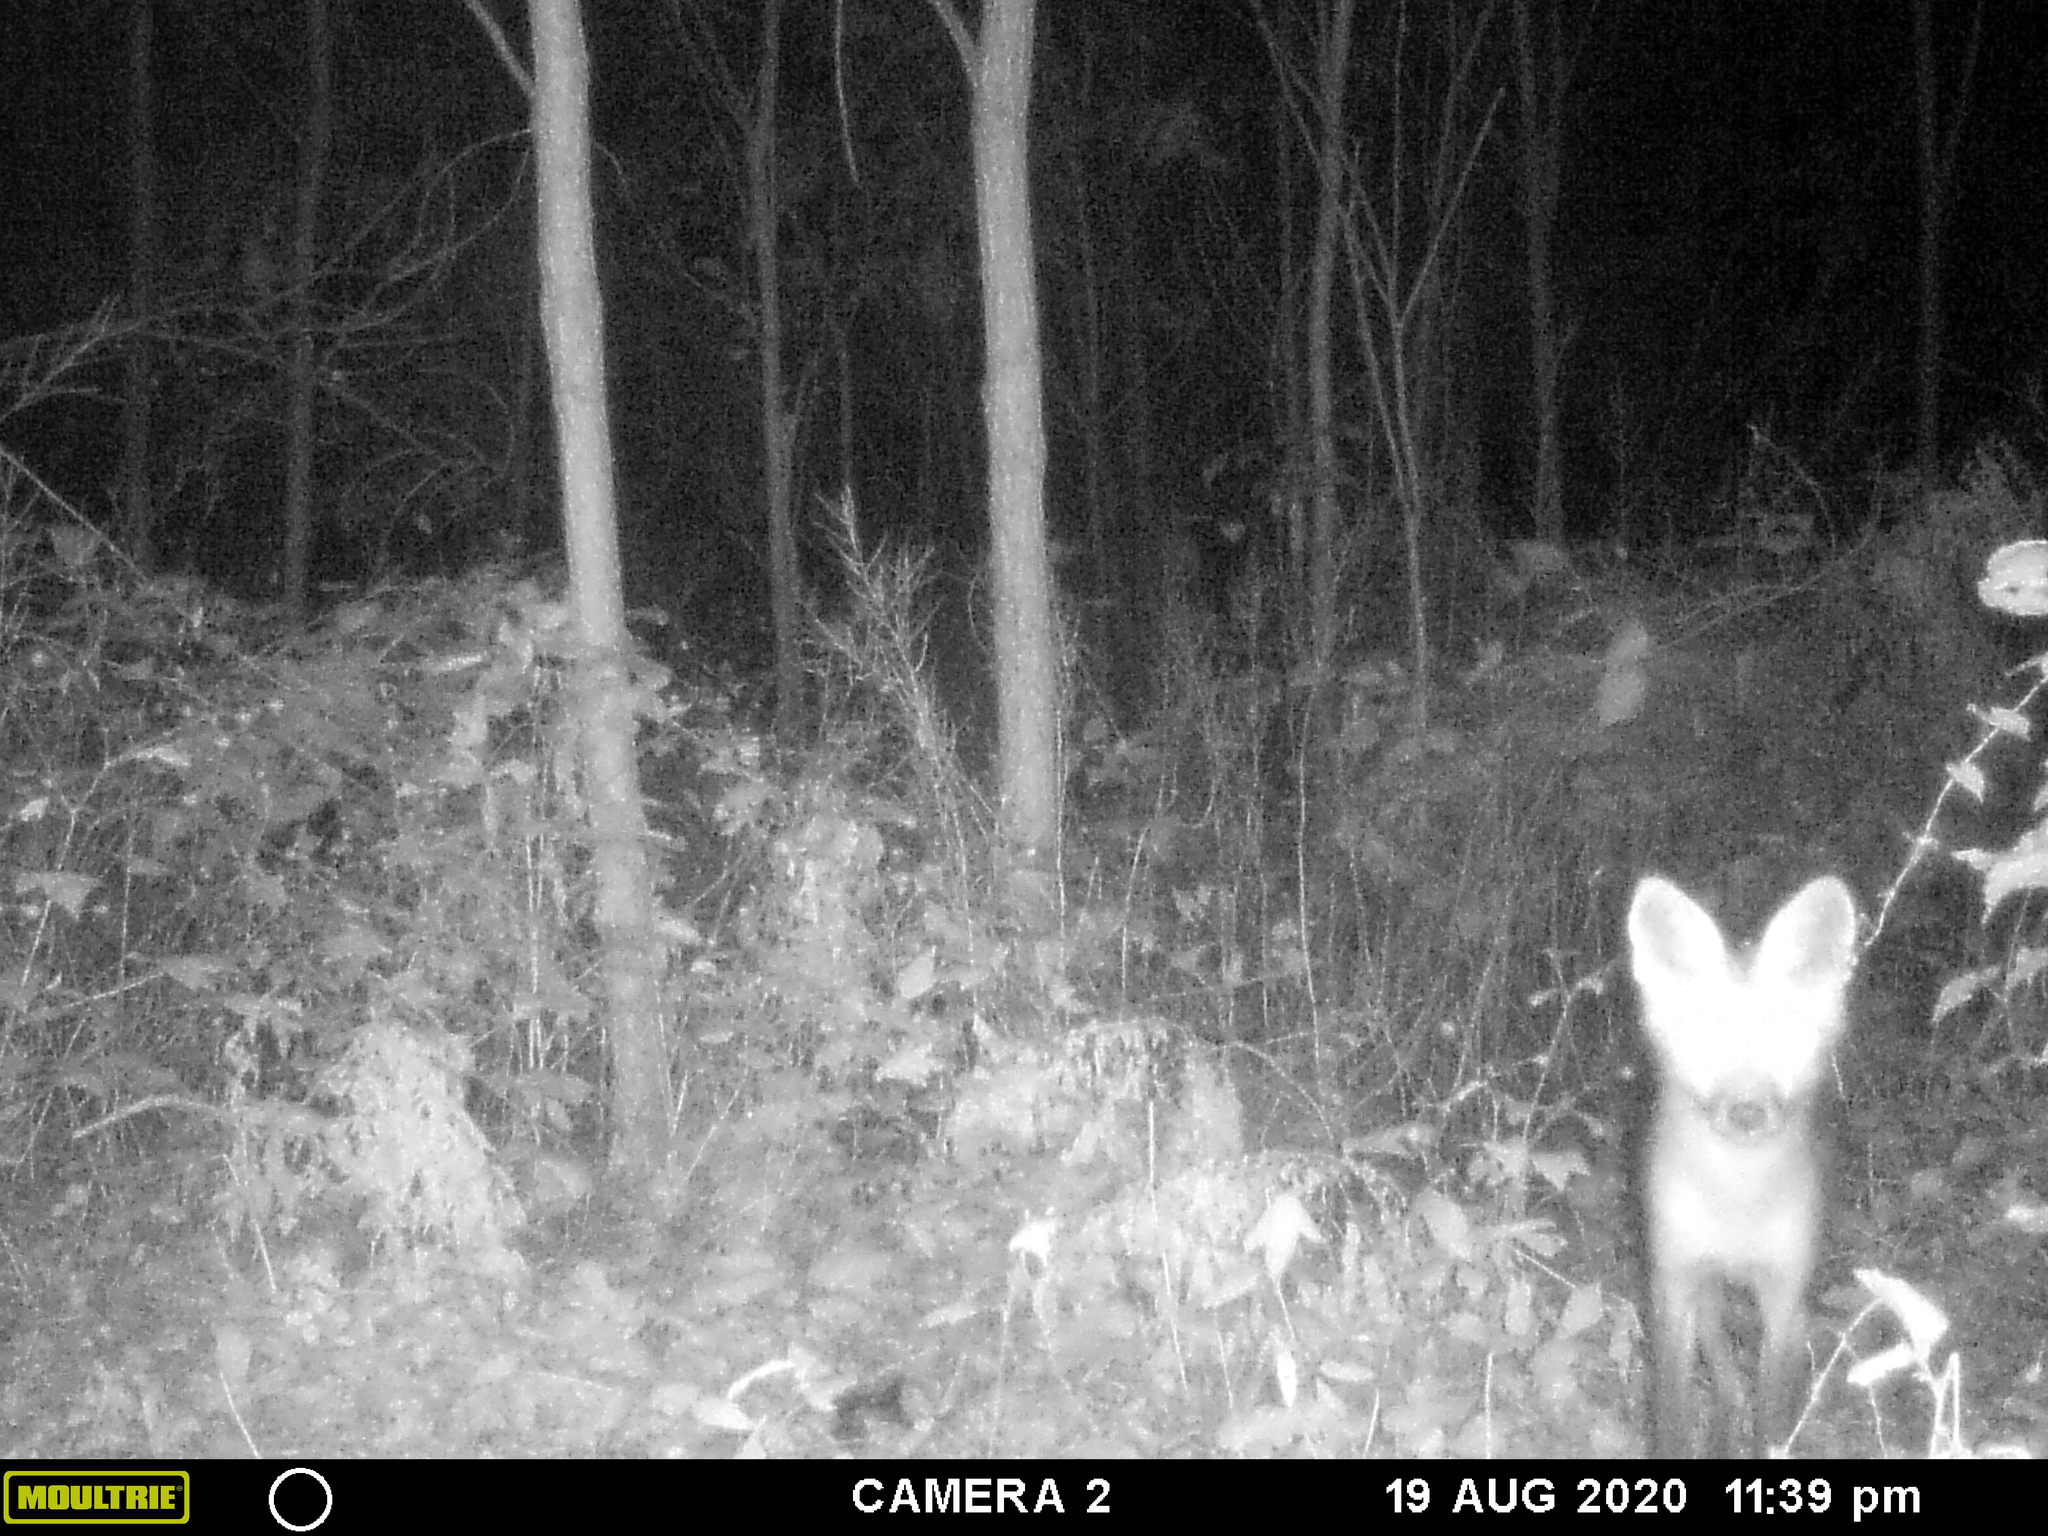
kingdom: Animalia
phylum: Chordata
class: Mammalia
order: Carnivora
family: Canidae
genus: Vulpes
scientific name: Vulpes vulpes
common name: Red fox
